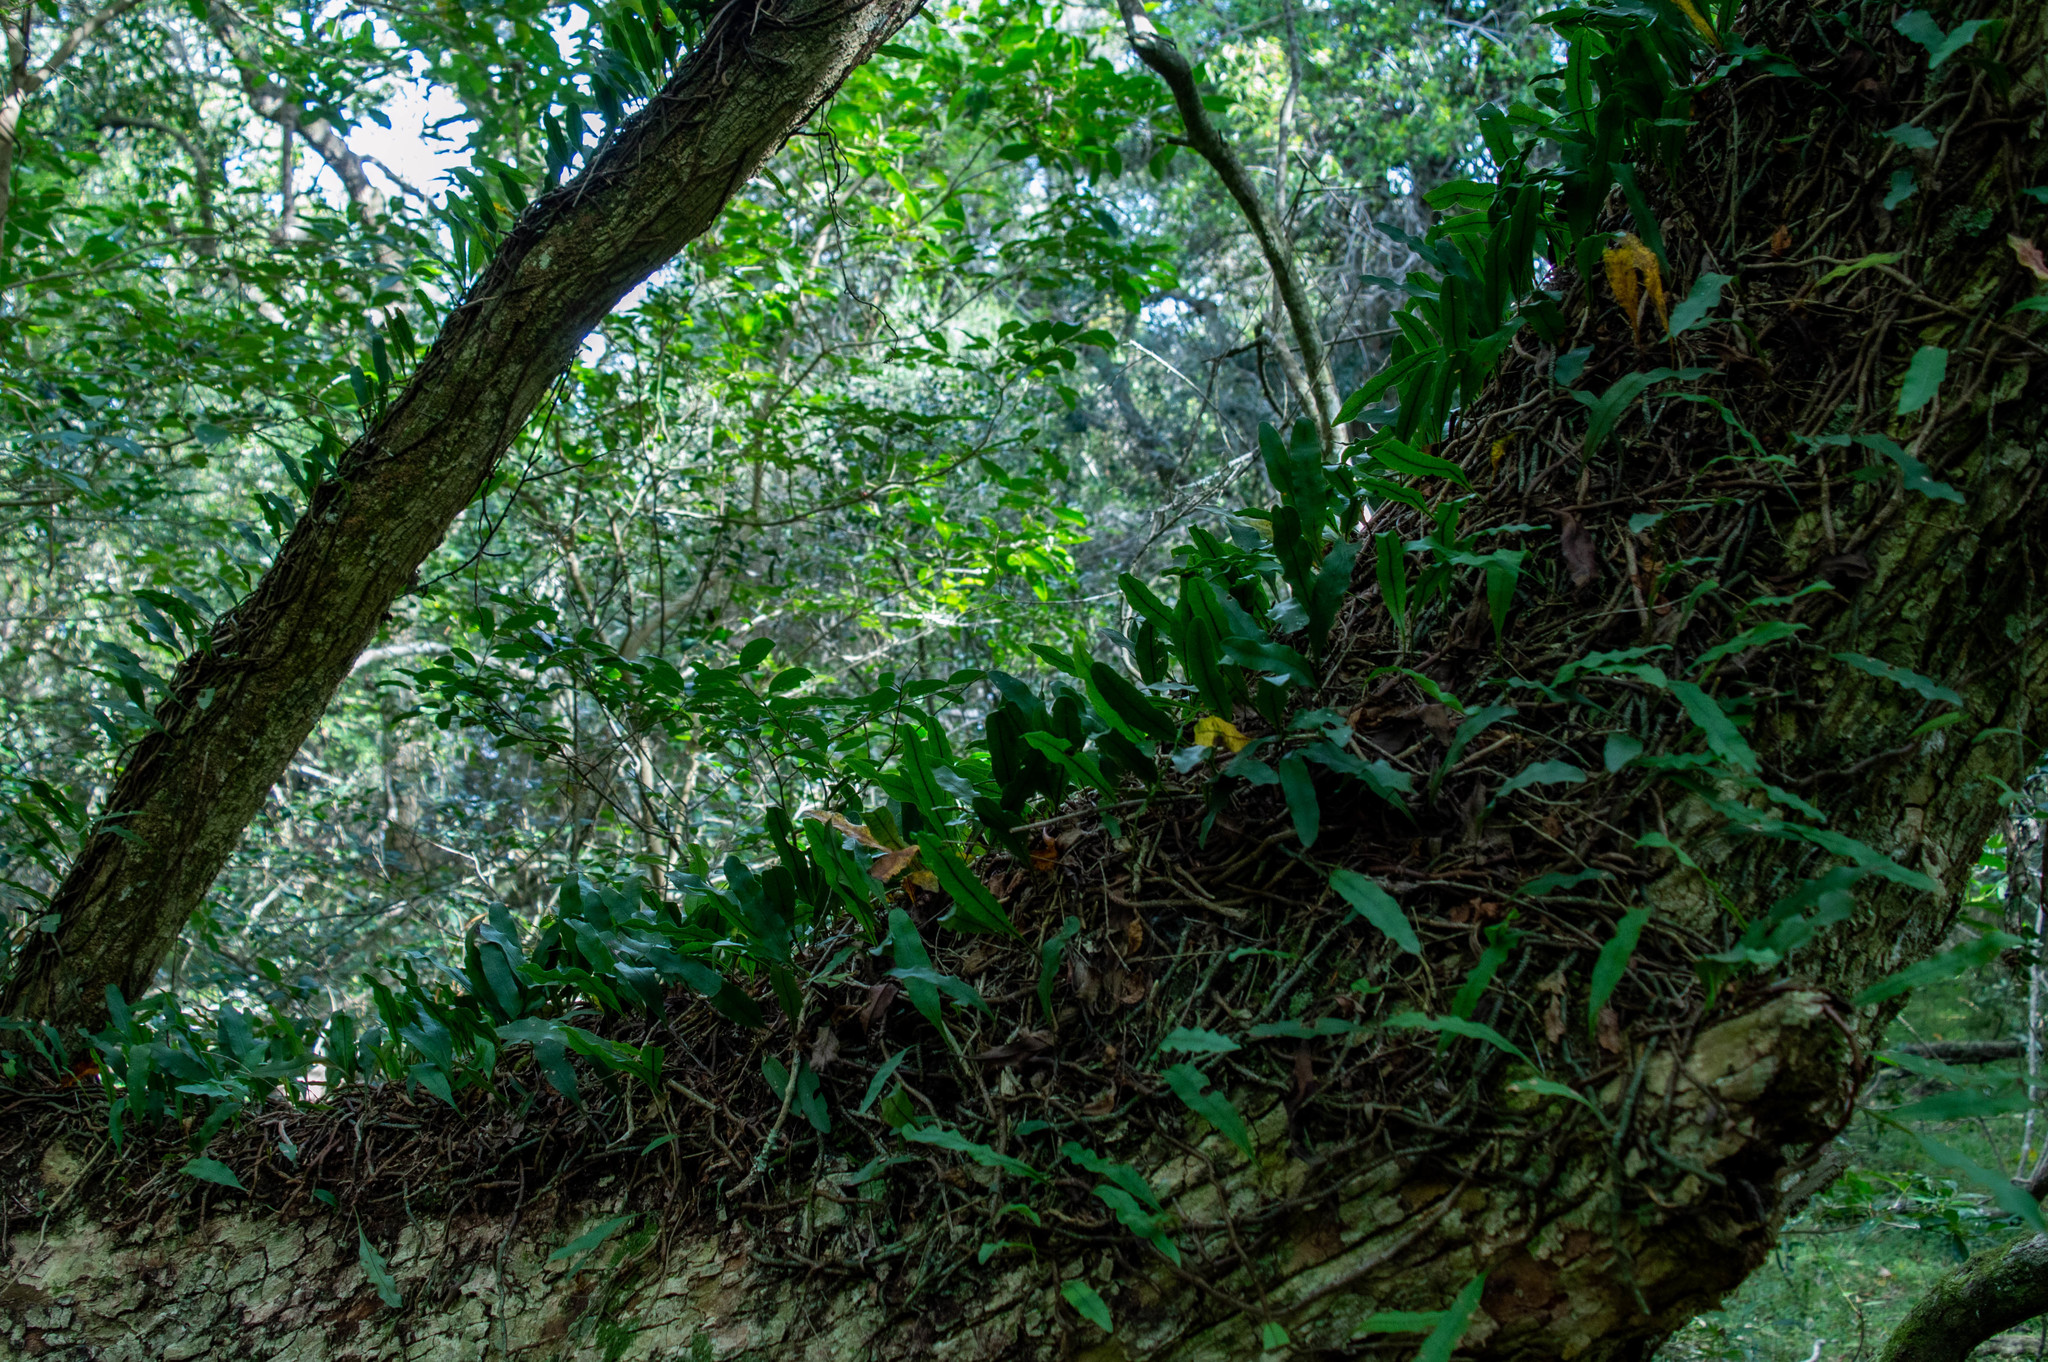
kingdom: Plantae
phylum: Tracheophyta
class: Polypodiopsida
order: Polypodiales
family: Polypodiaceae
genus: Microgramma
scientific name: Microgramma squamulosa
